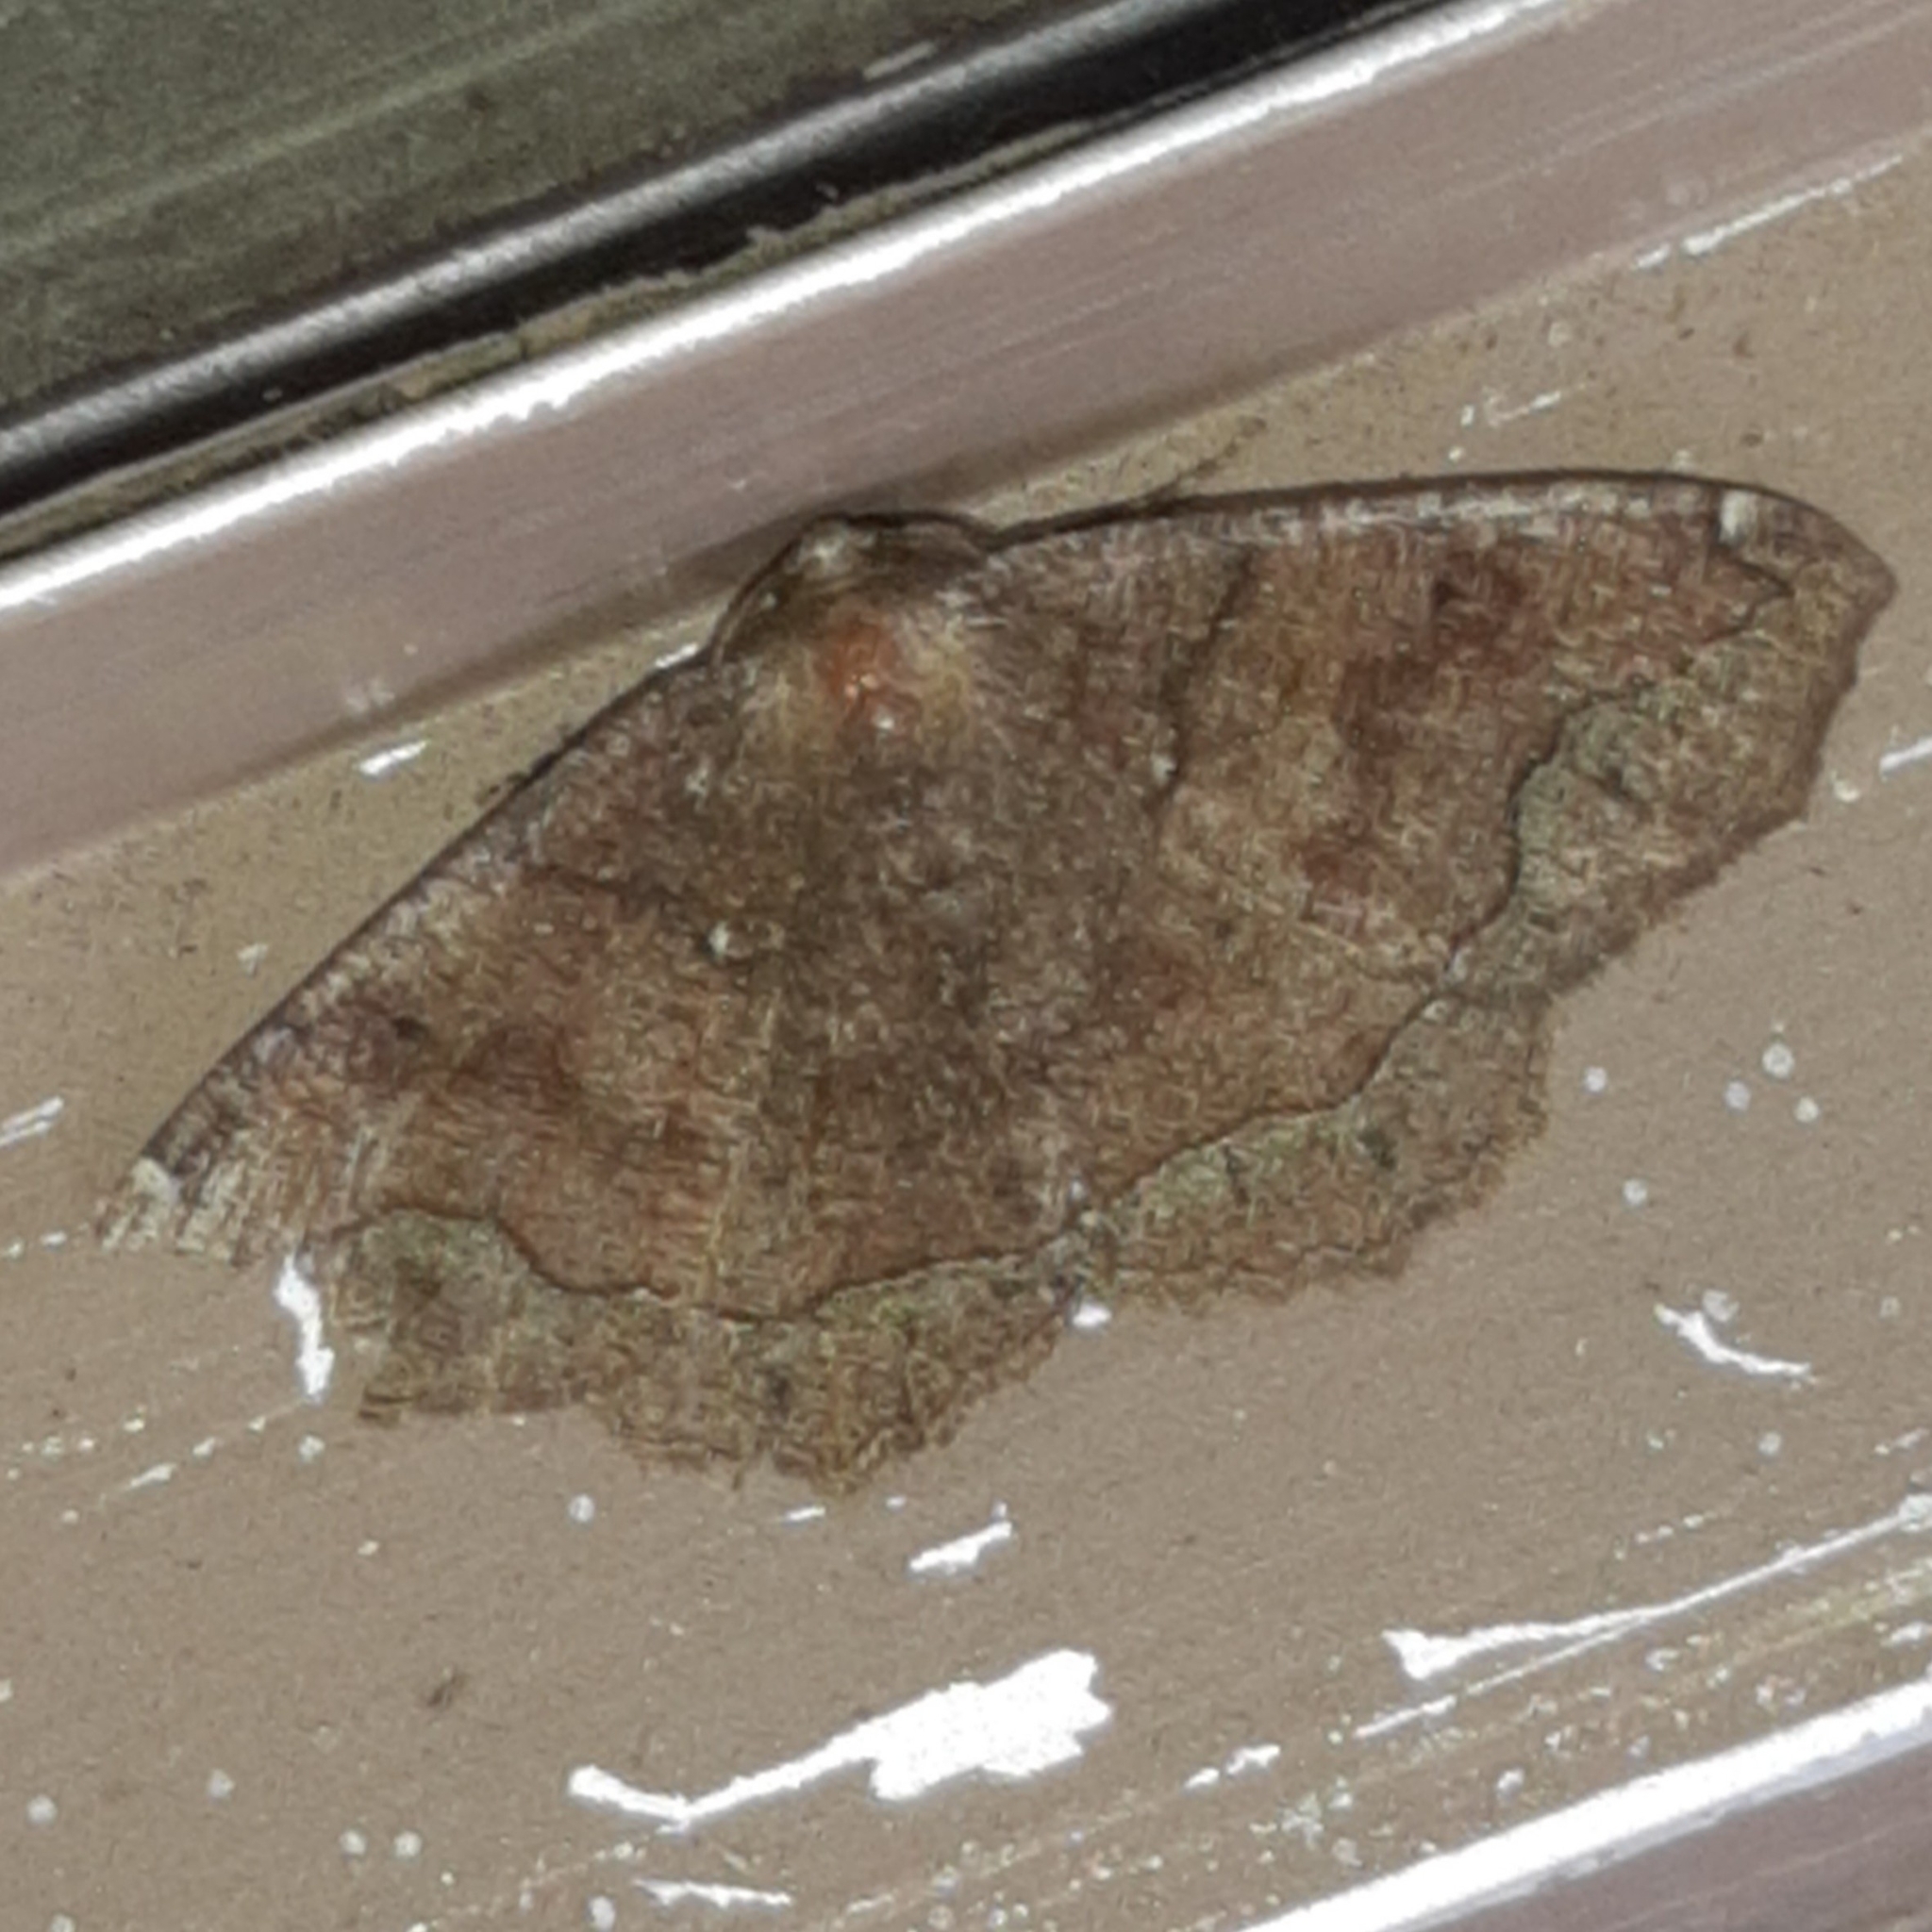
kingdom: Animalia
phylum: Arthropoda
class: Insecta
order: Lepidoptera
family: Geometridae
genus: Tetragonodes
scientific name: Tetragonodes murcia
